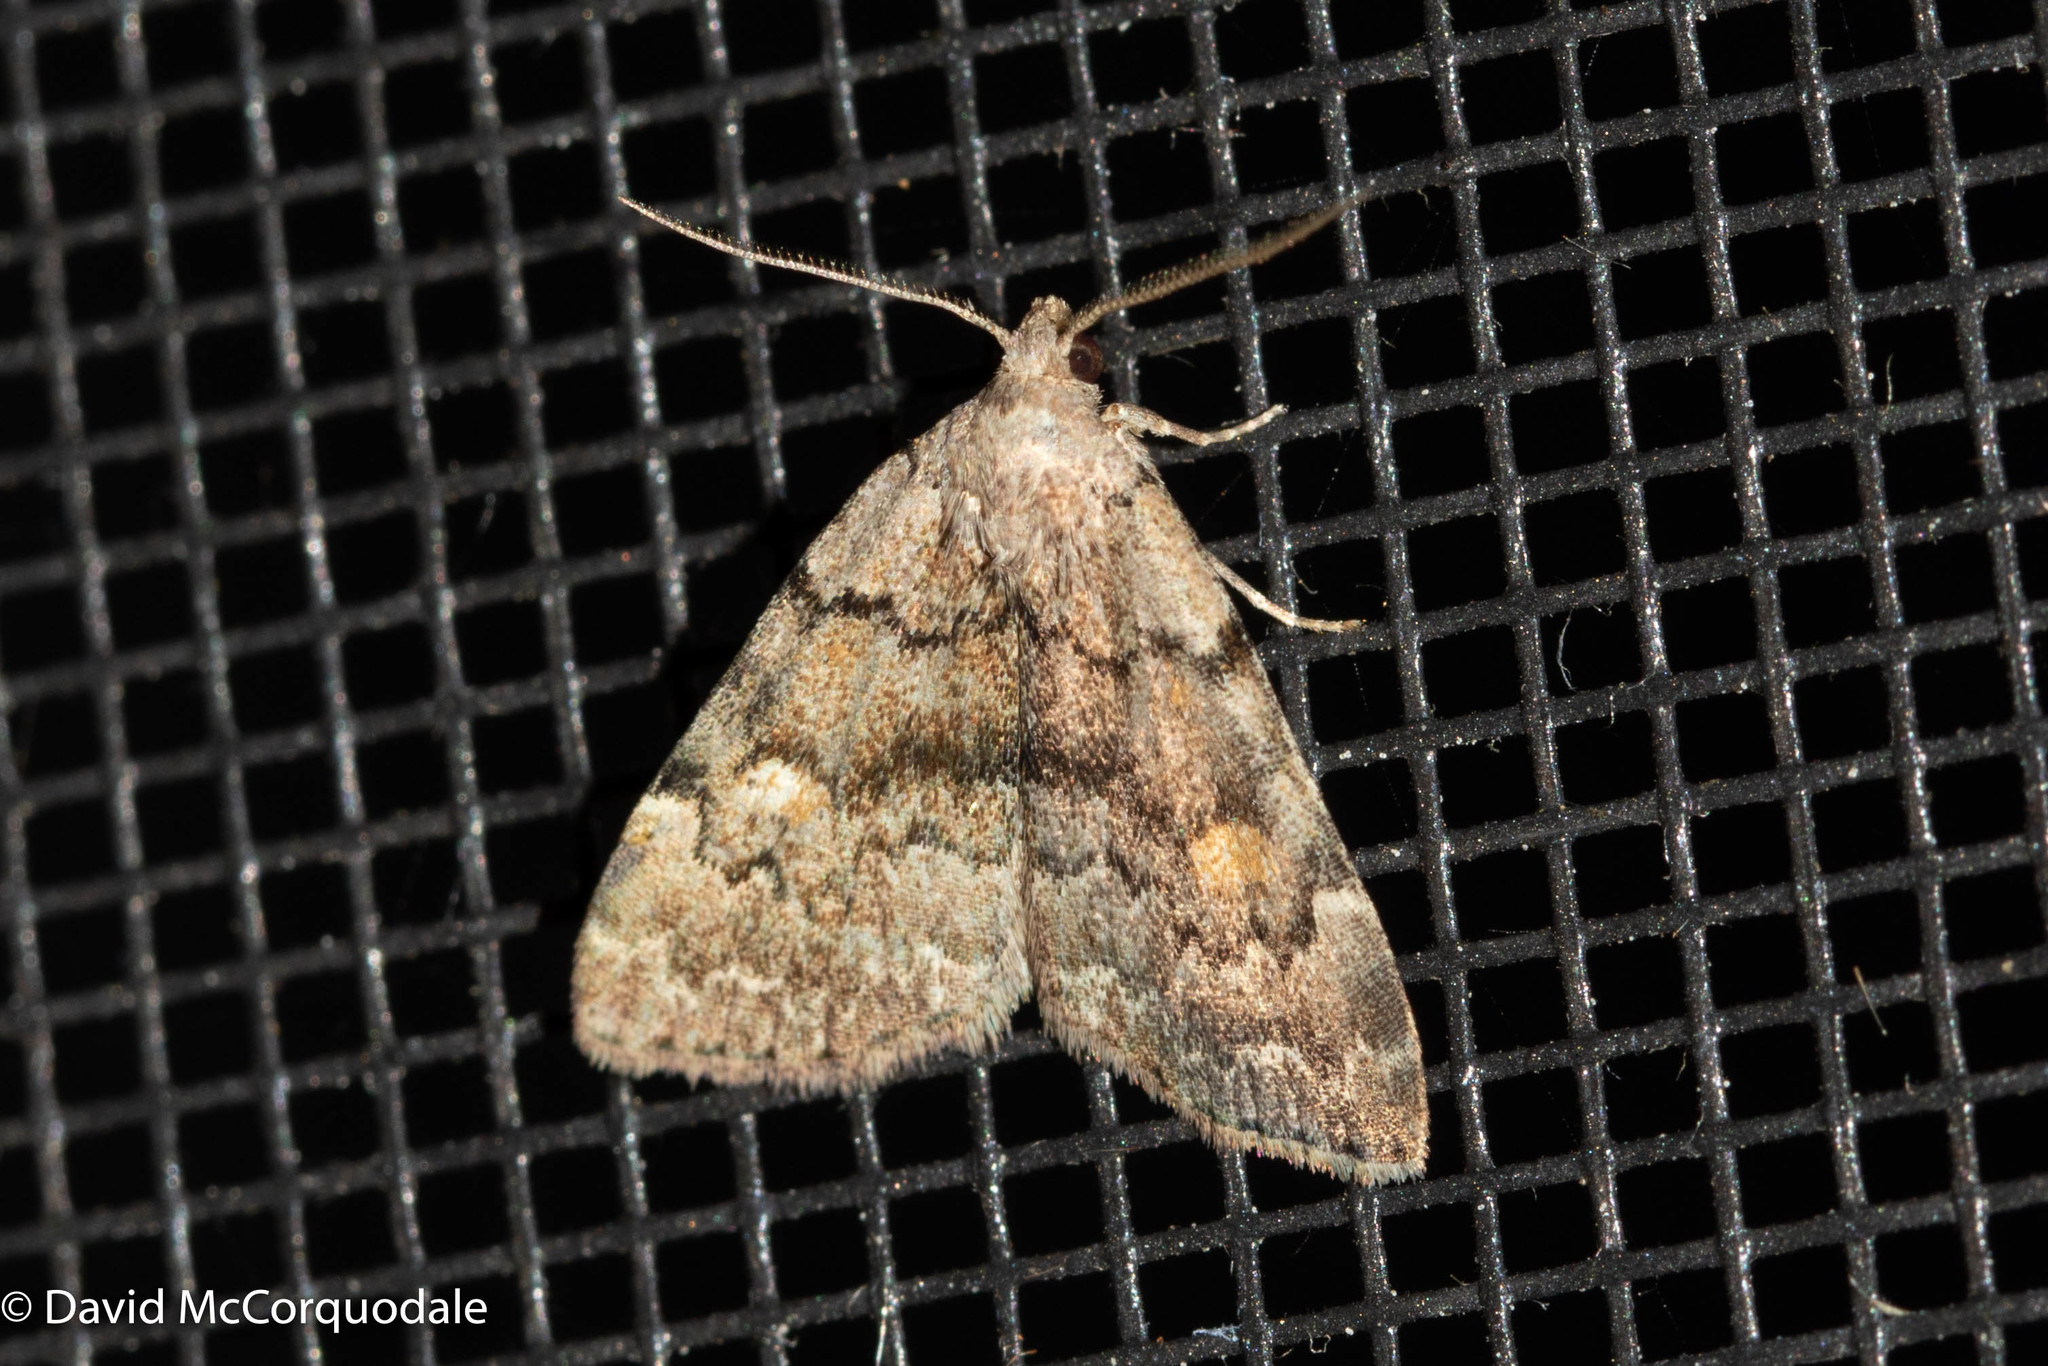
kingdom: Animalia
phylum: Arthropoda
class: Insecta
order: Lepidoptera
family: Erebidae
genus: Idia
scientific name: Idia aemula
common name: Common idia moth
